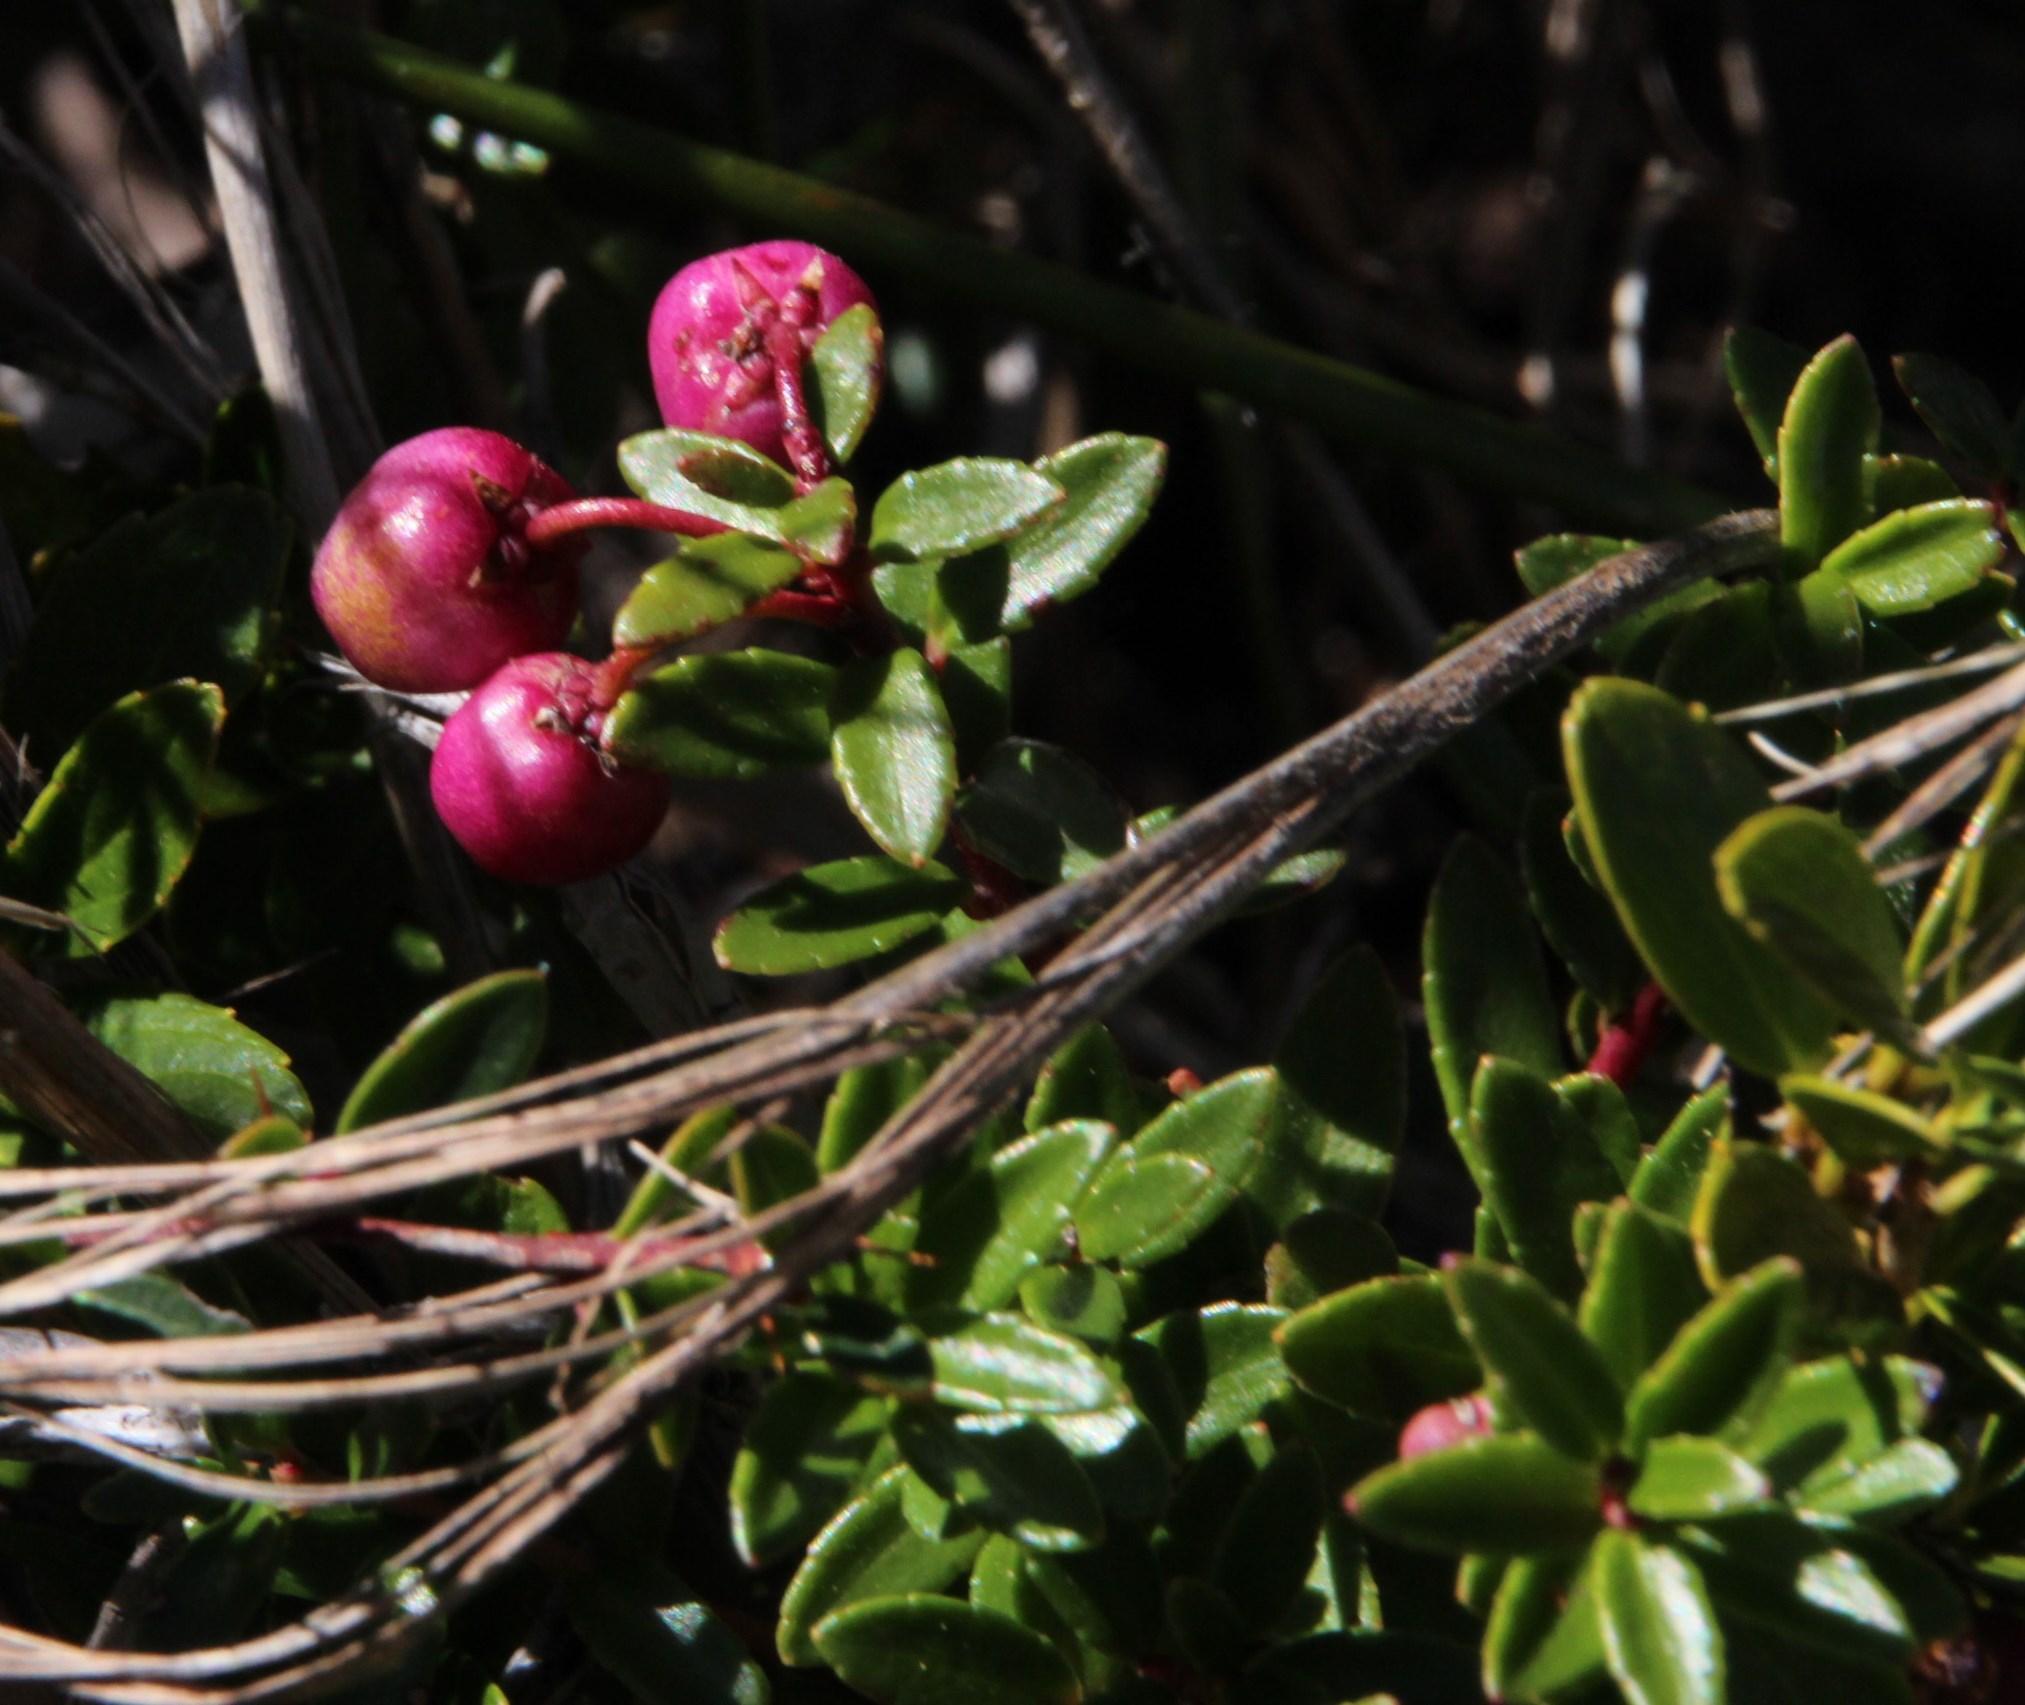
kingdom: Plantae
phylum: Tracheophyta
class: Magnoliopsida
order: Ericales
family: Ericaceae
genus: Gaultheria
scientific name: Gaultheria mucronata
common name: Prickly heath
